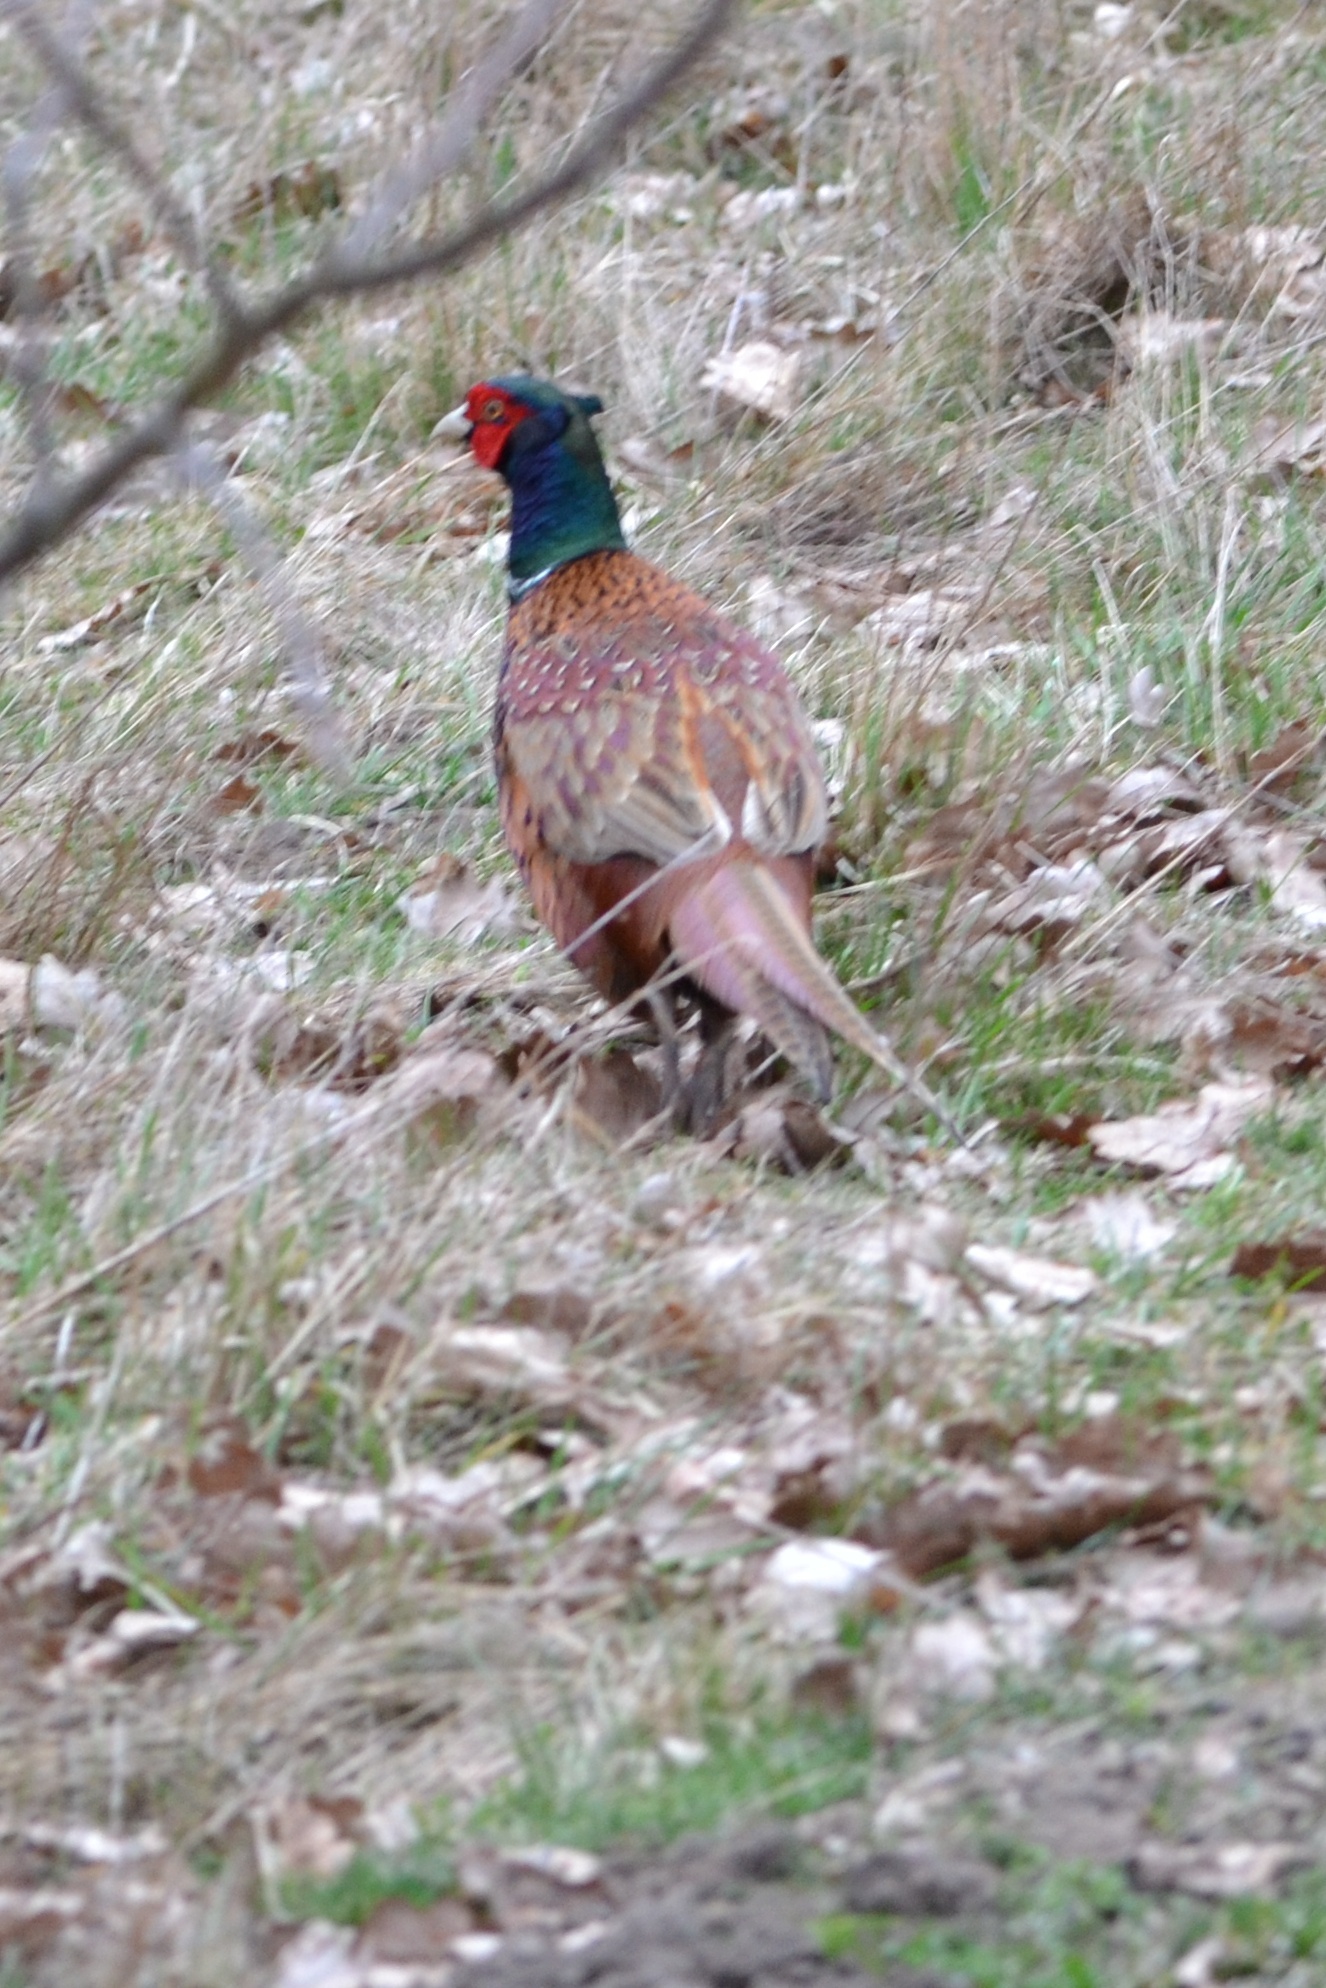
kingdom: Animalia
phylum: Chordata
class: Aves
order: Galliformes
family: Phasianidae
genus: Phasianus
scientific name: Phasianus colchicus
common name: Common pheasant
